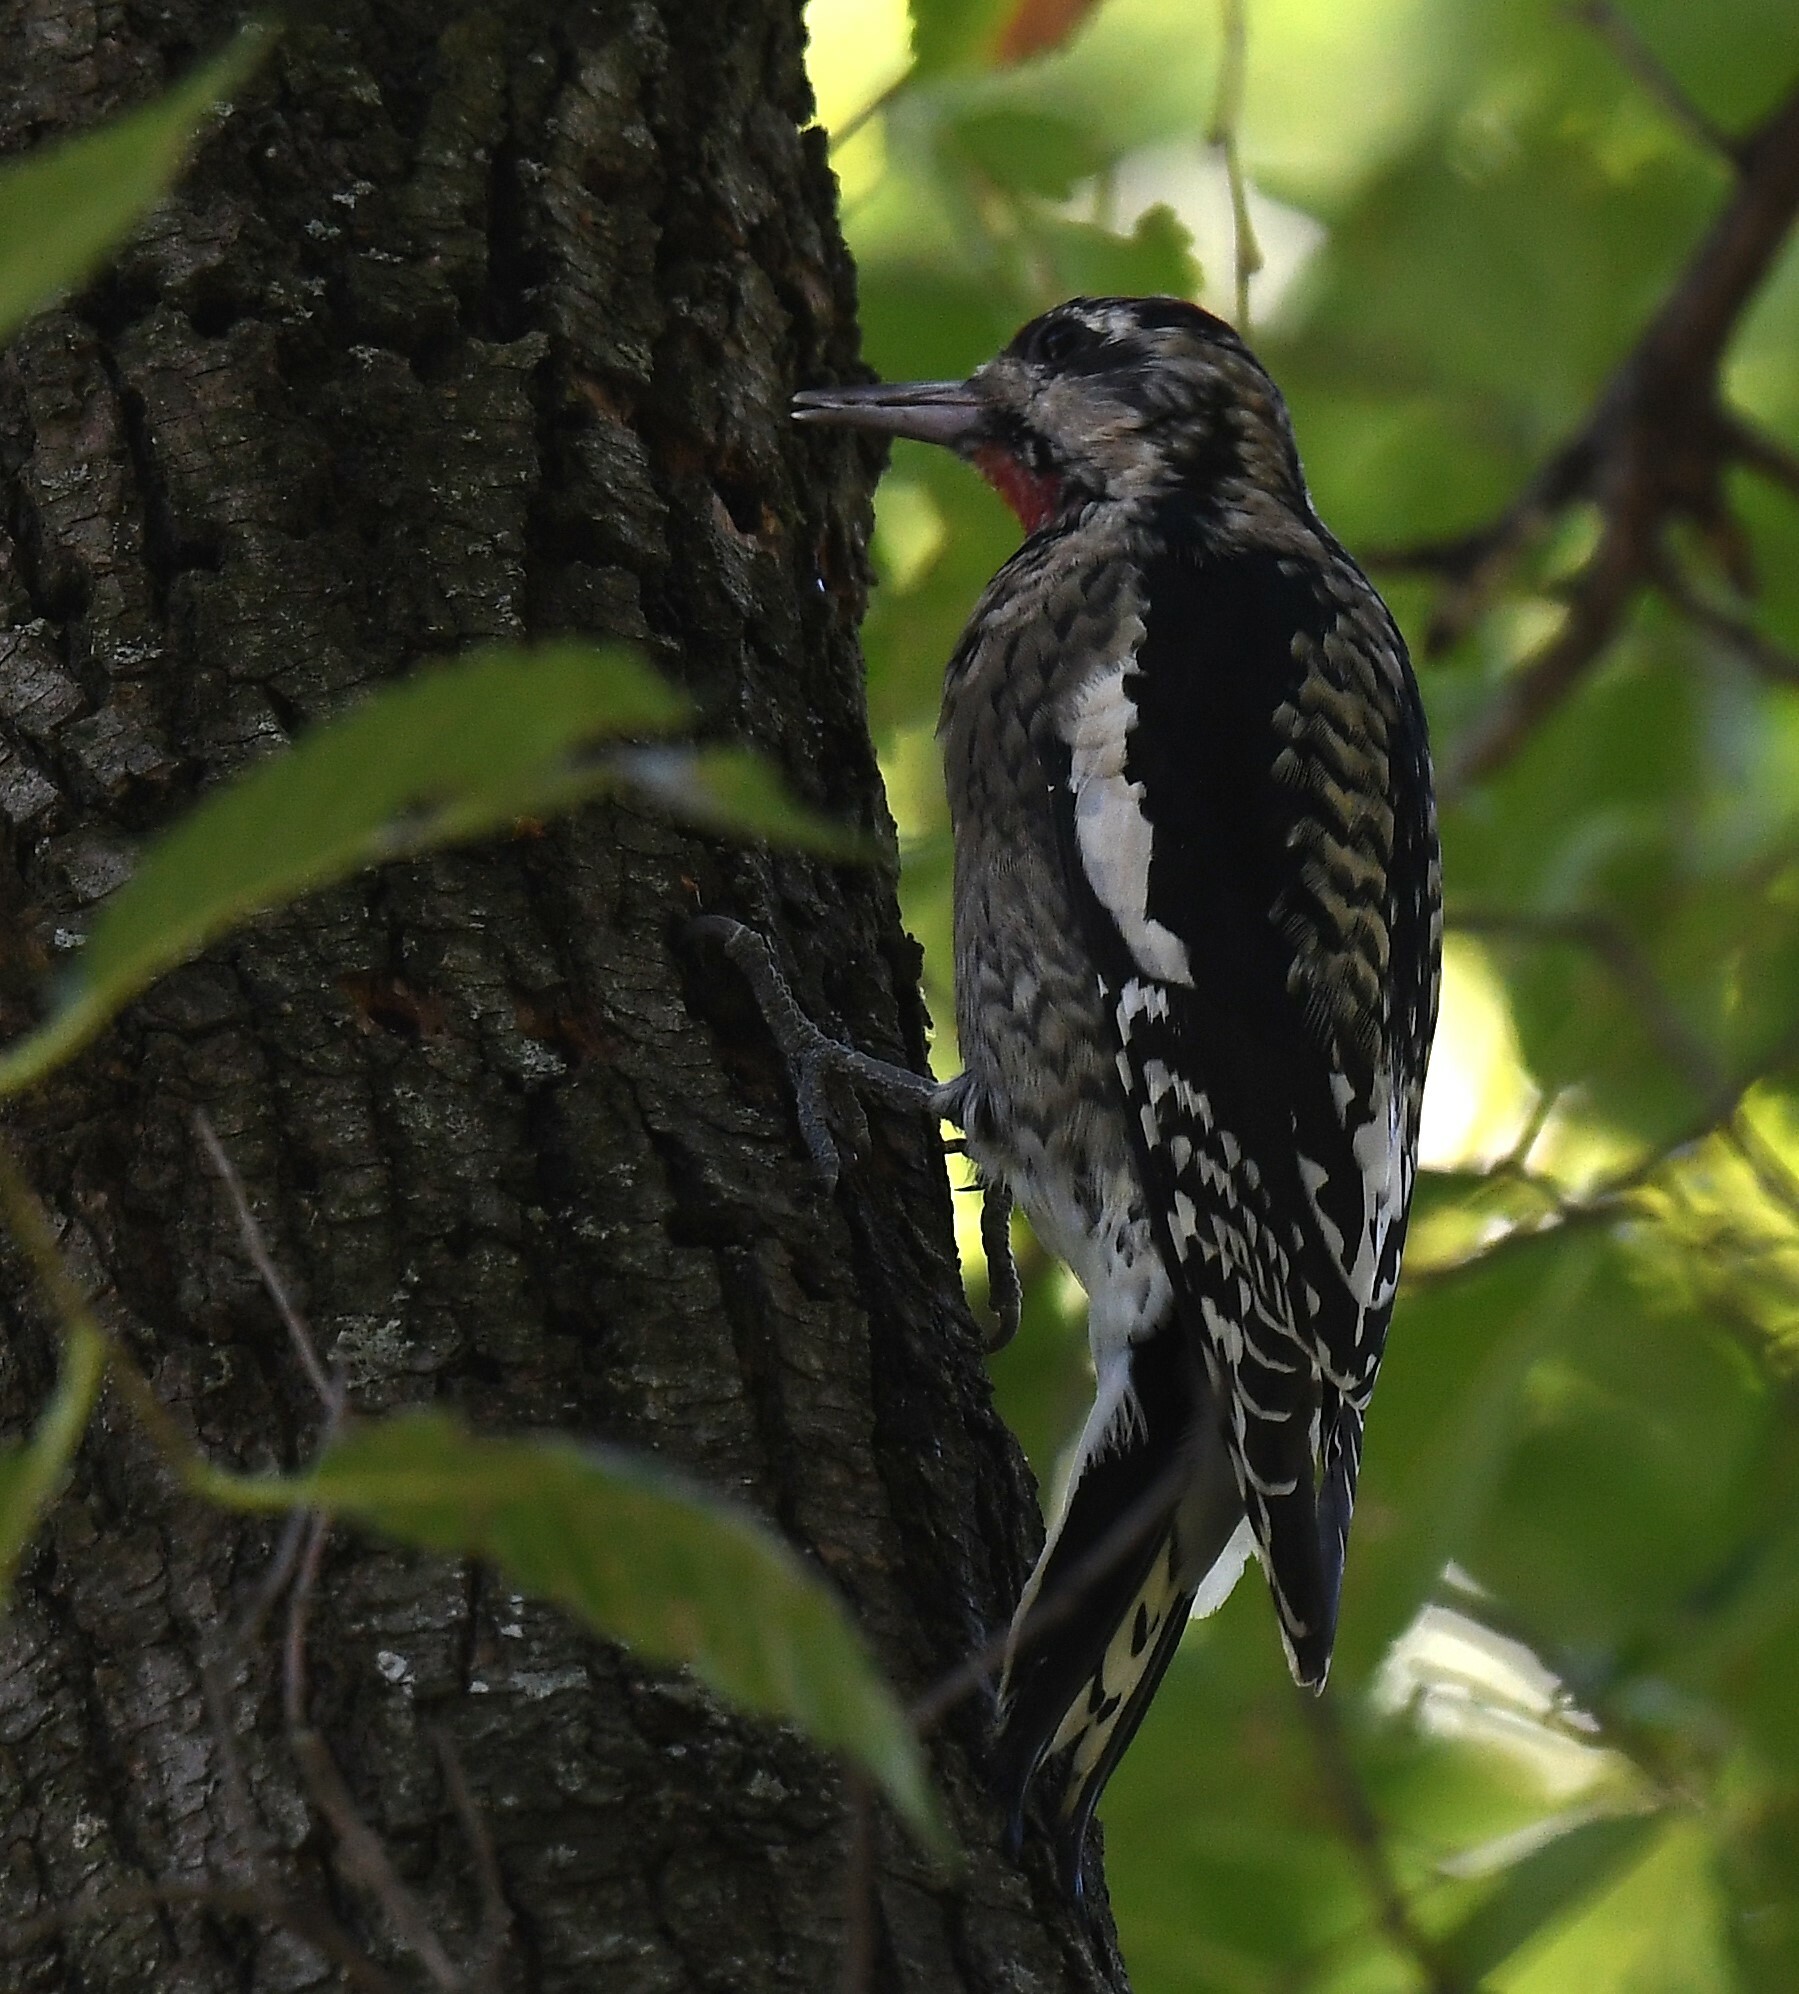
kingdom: Animalia
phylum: Chordata
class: Aves
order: Piciformes
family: Picidae
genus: Sphyrapicus
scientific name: Sphyrapicus varius
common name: Yellow-bellied sapsucker
